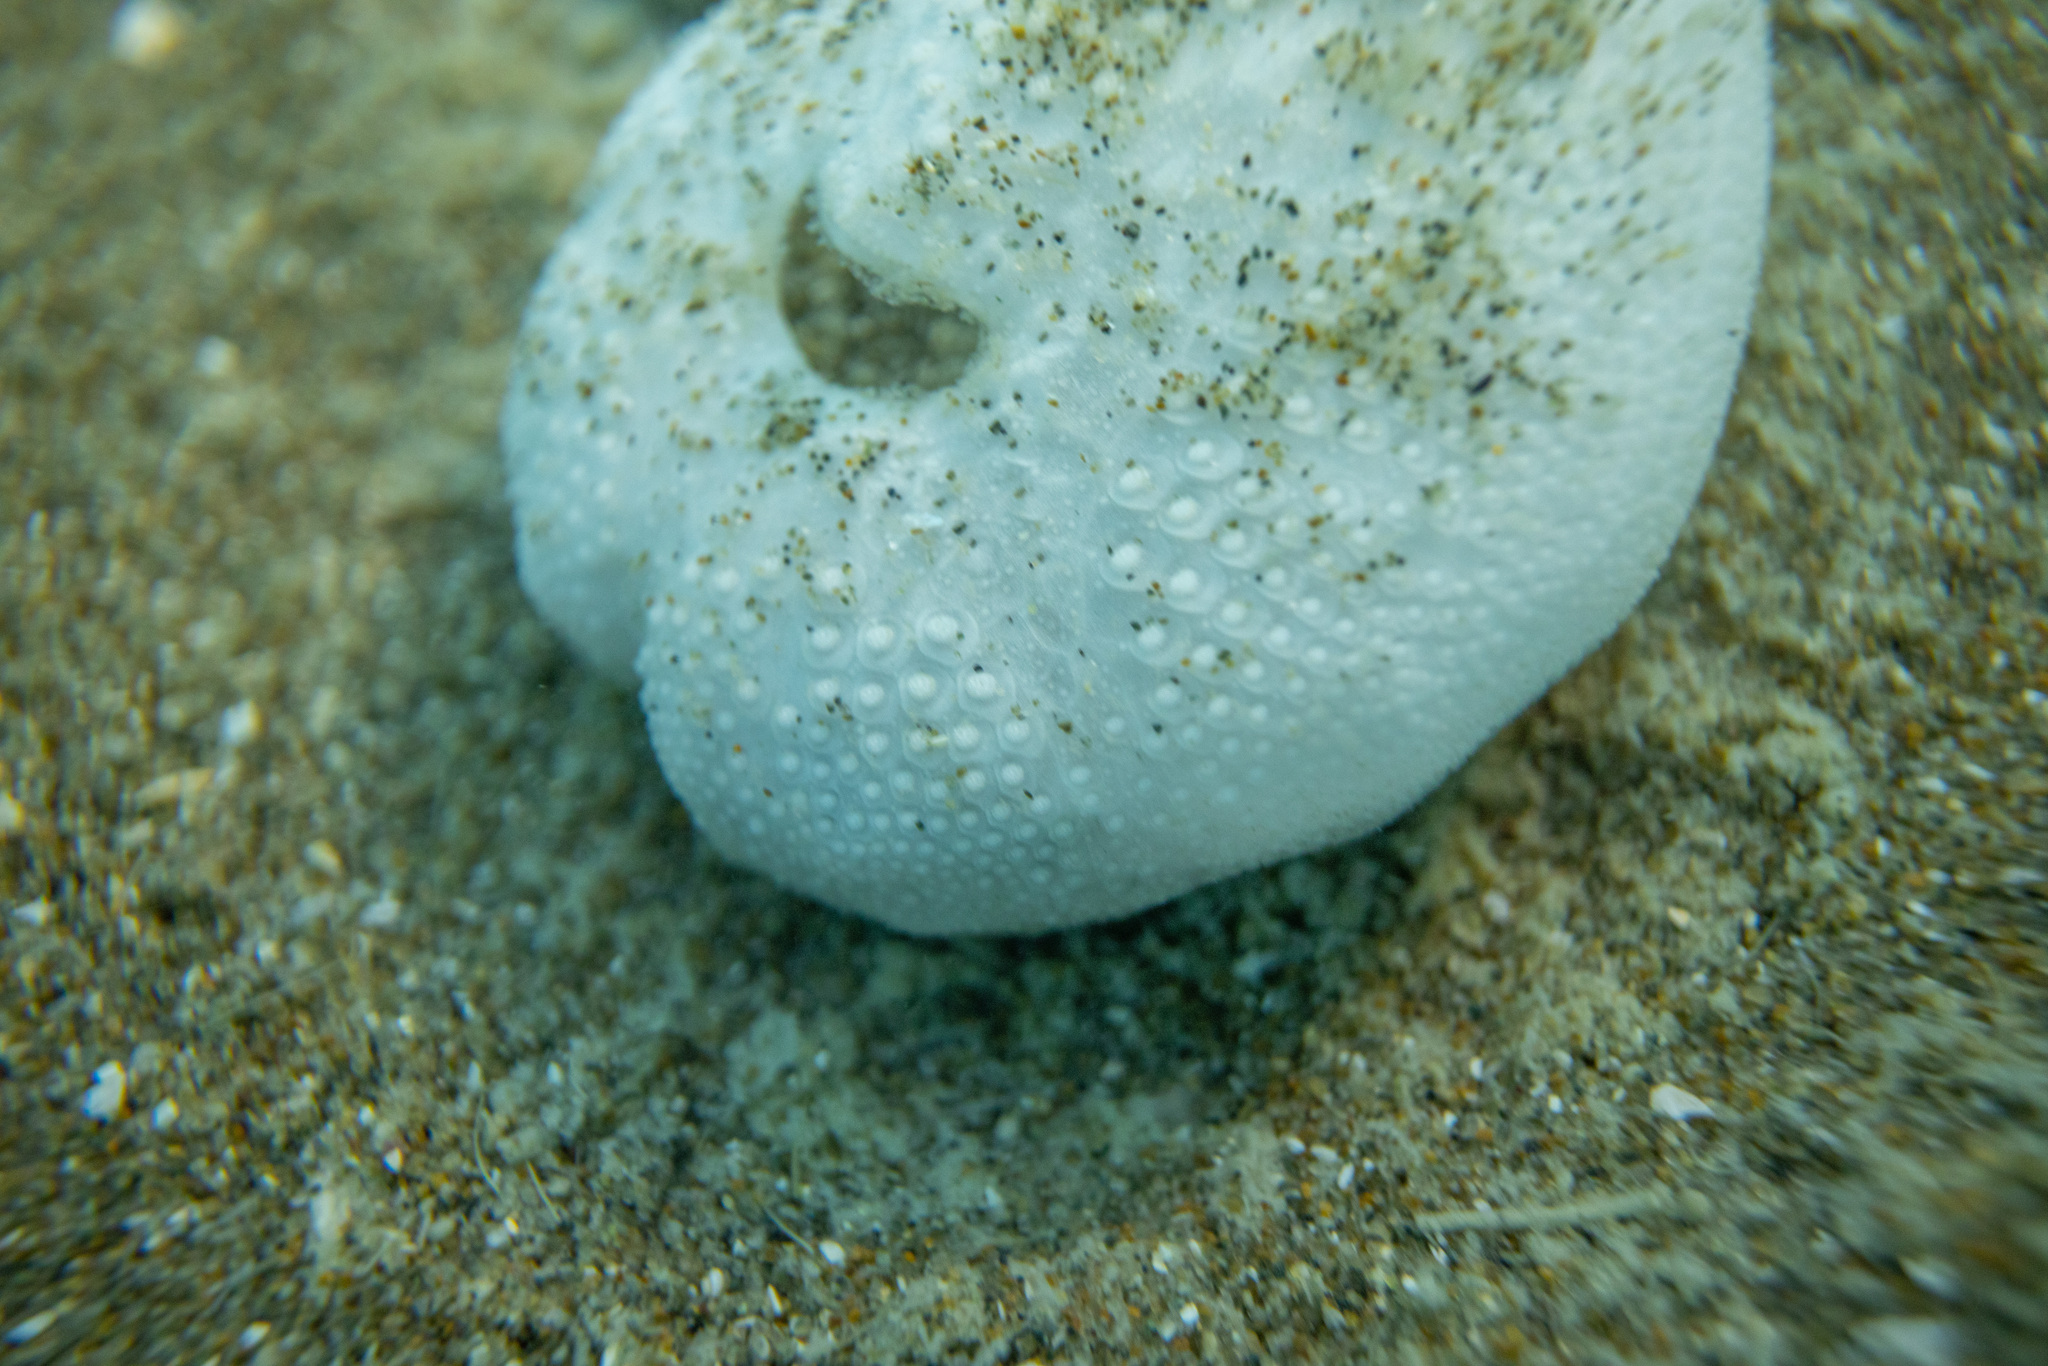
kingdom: Animalia
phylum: Echinodermata
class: Echinoidea
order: Spatangoida
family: Loveniidae
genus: Echinocardium
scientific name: Echinocardium cordatum
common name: Heart-urchin
